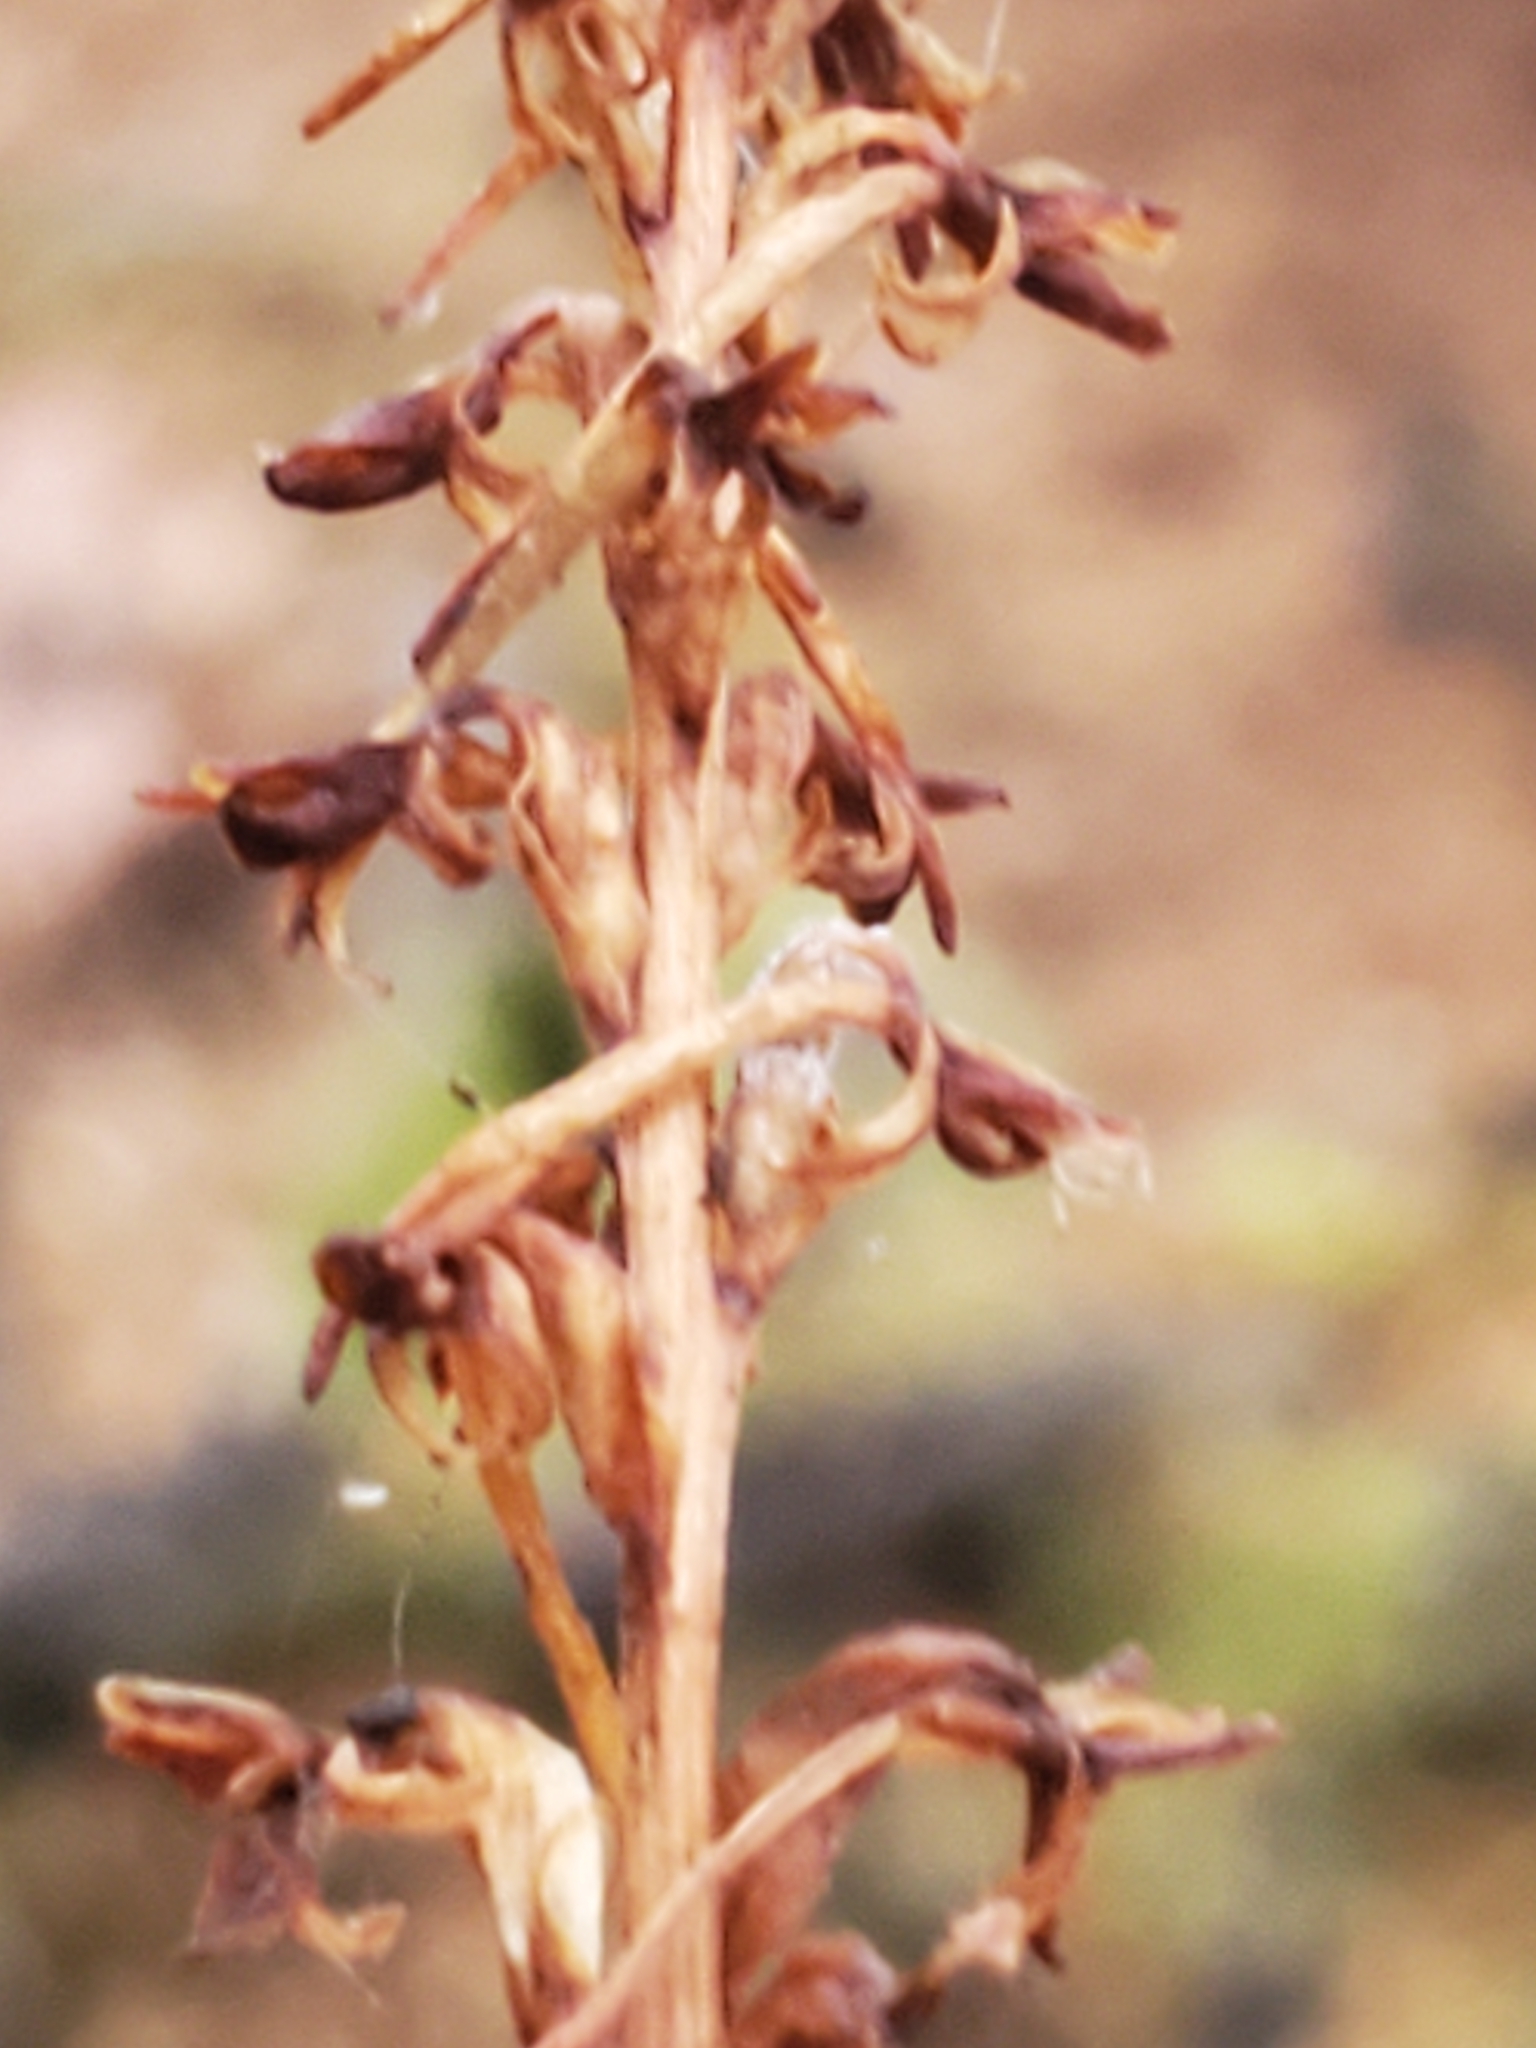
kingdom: Plantae
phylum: Tracheophyta
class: Liliopsida
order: Asparagales
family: Orchidaceae
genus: Platanthera
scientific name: Platanthera elongata
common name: Dense-flowered rein orchid
